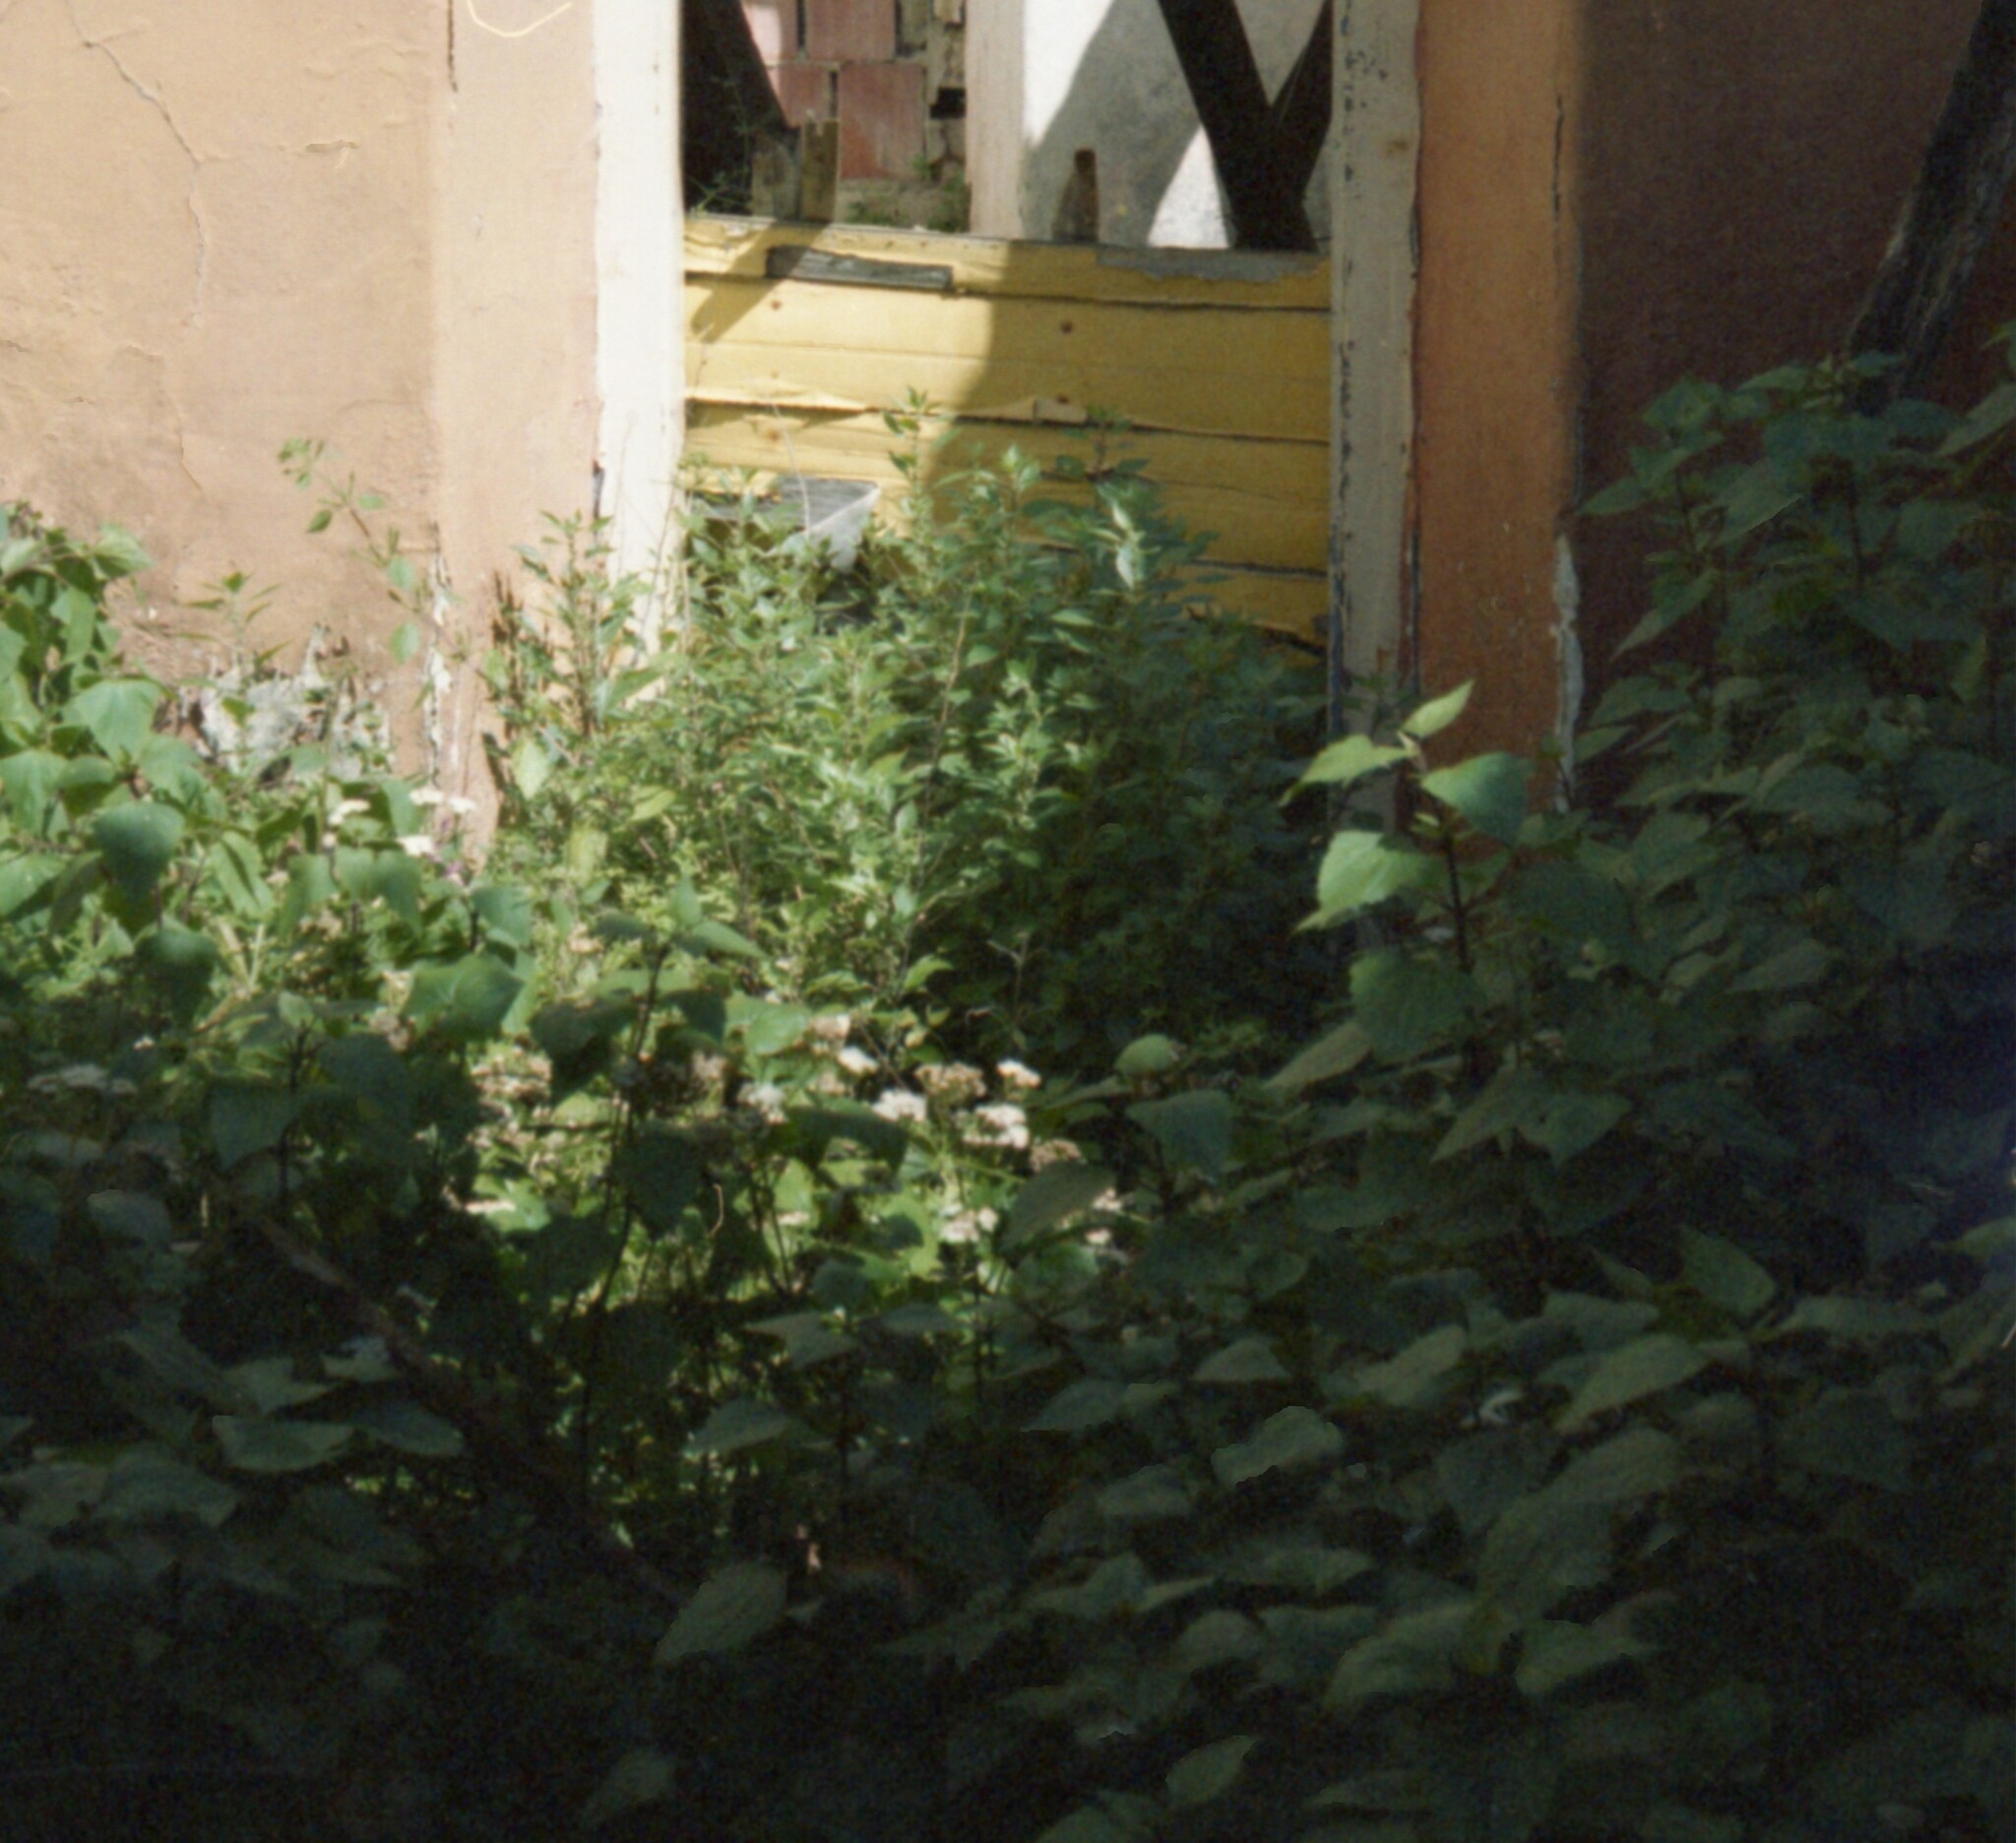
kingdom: Plantae
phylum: Tracheophyta
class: Magnoliopsida
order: Asterales
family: Asteraceae
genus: Ageratina
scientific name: Ageratina adenophora
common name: Sticky snakeroot
